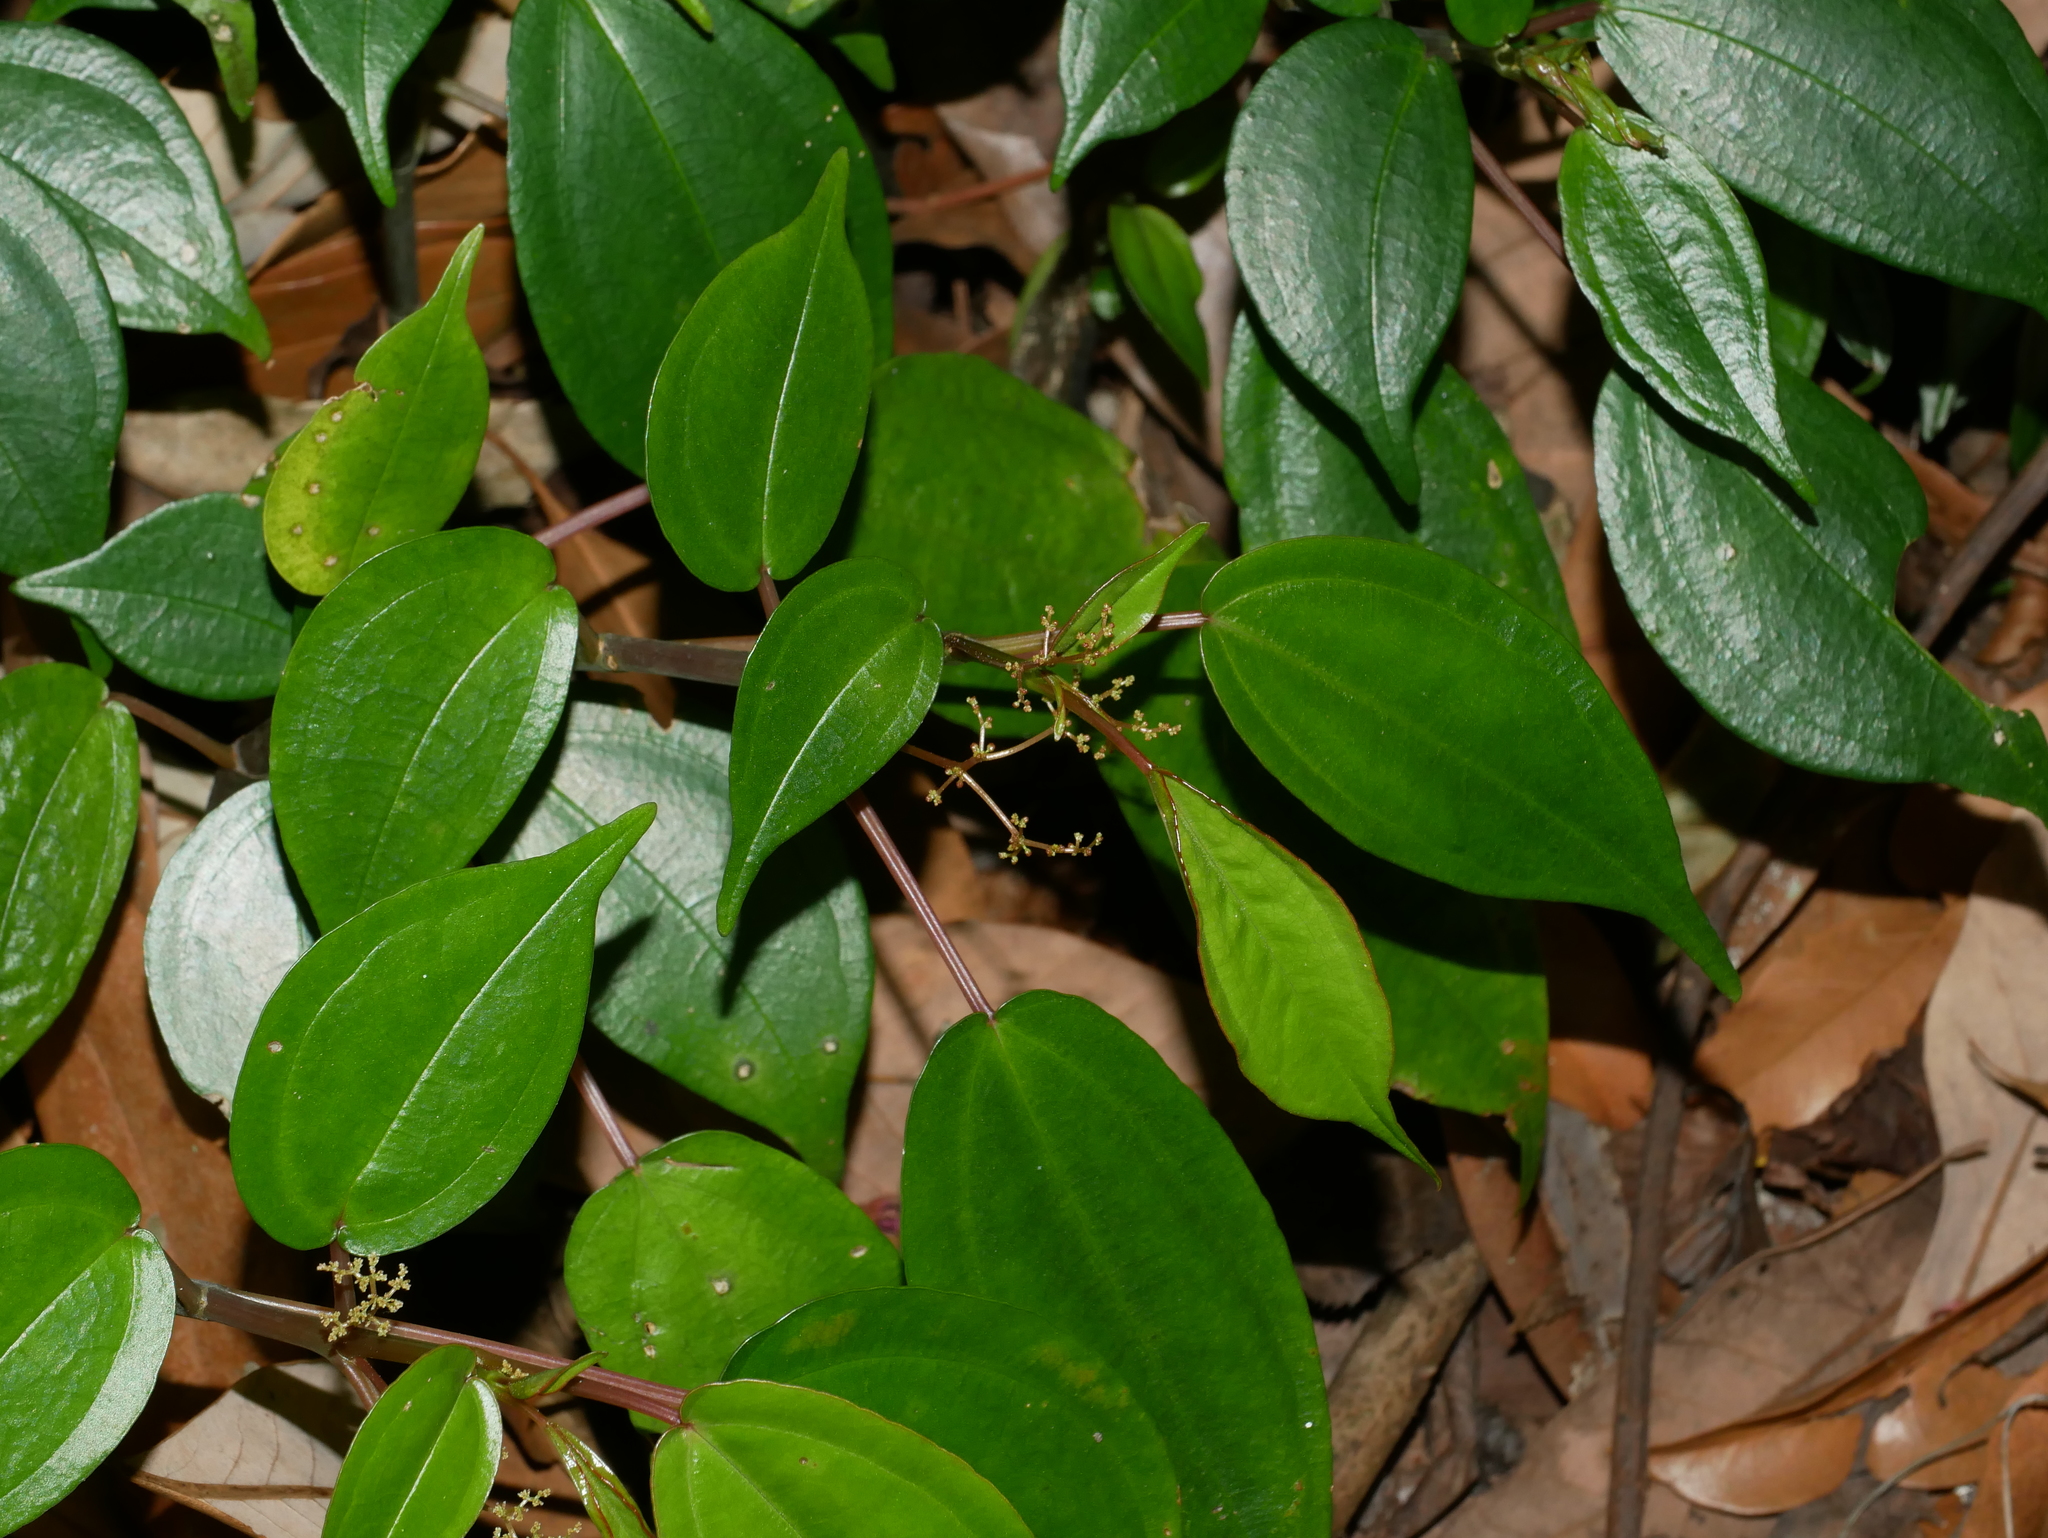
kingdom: Plantae
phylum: Tracheophyta
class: Magnoliopsida
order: Rosales
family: Urticaceae
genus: Pilea
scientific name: Pilea plataniflora
